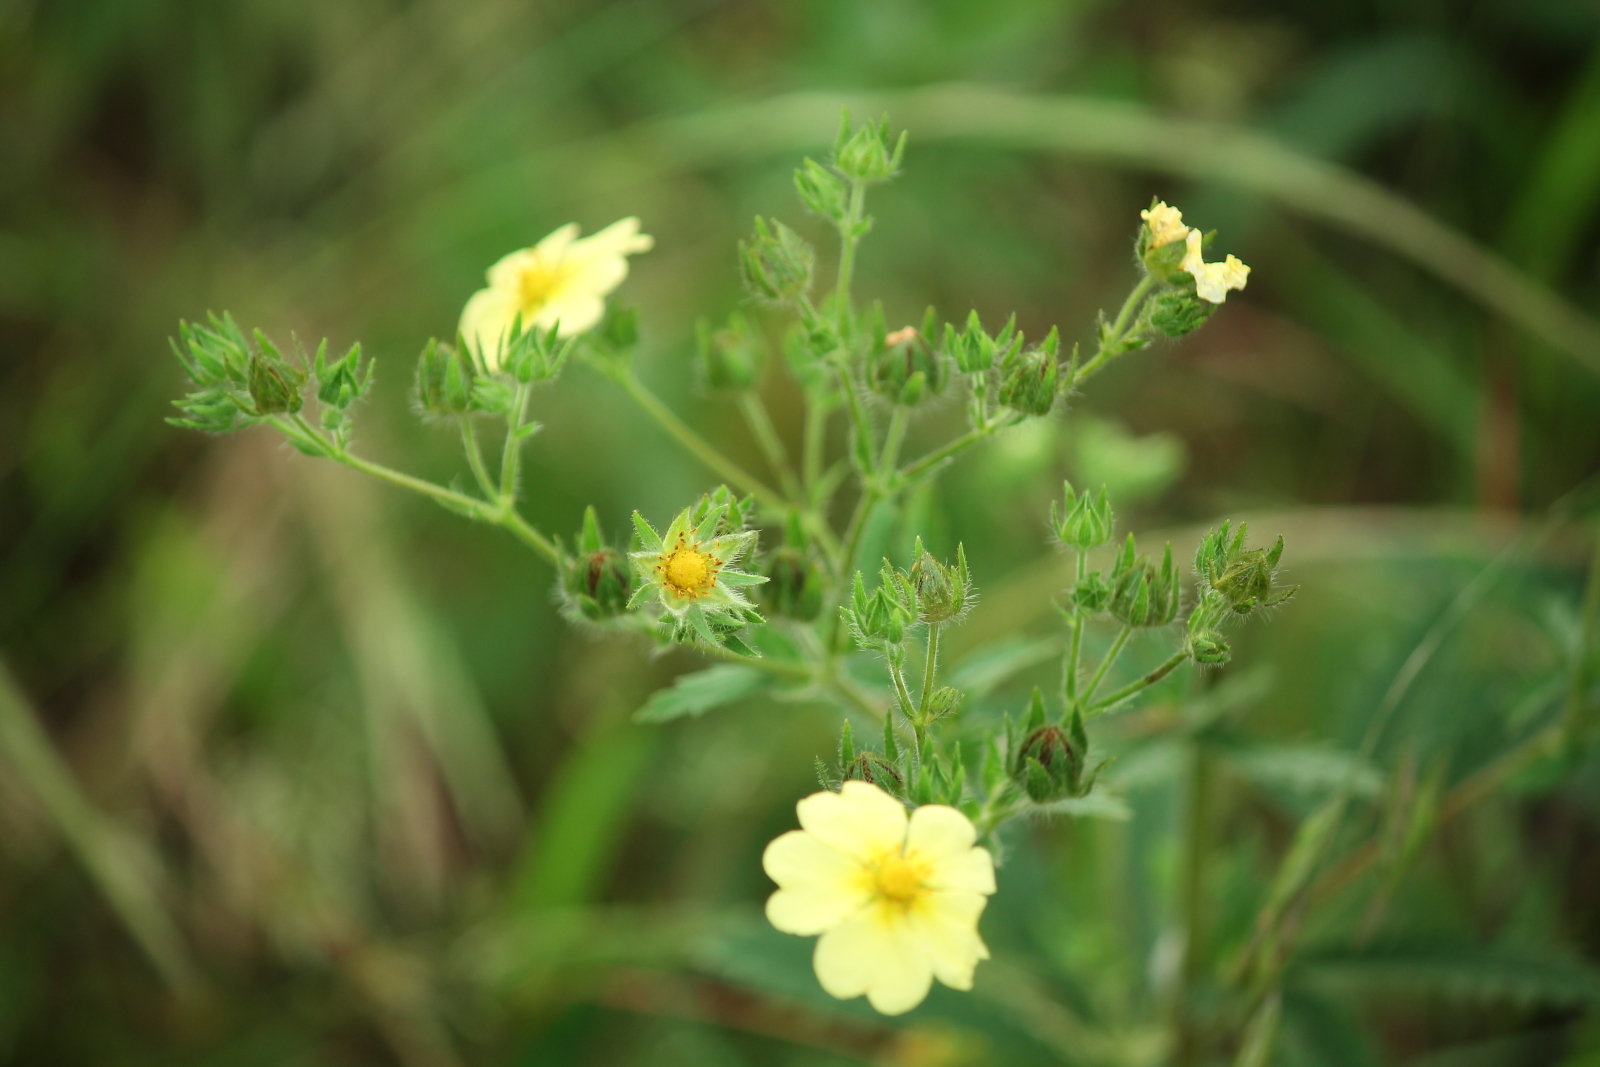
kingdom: Plantae
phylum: Tracheophyta
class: Magnoliopsida
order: Rosales
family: Rosaceae
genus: Potentilla
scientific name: Potentilla recta
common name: Sulphur cinquefoil
